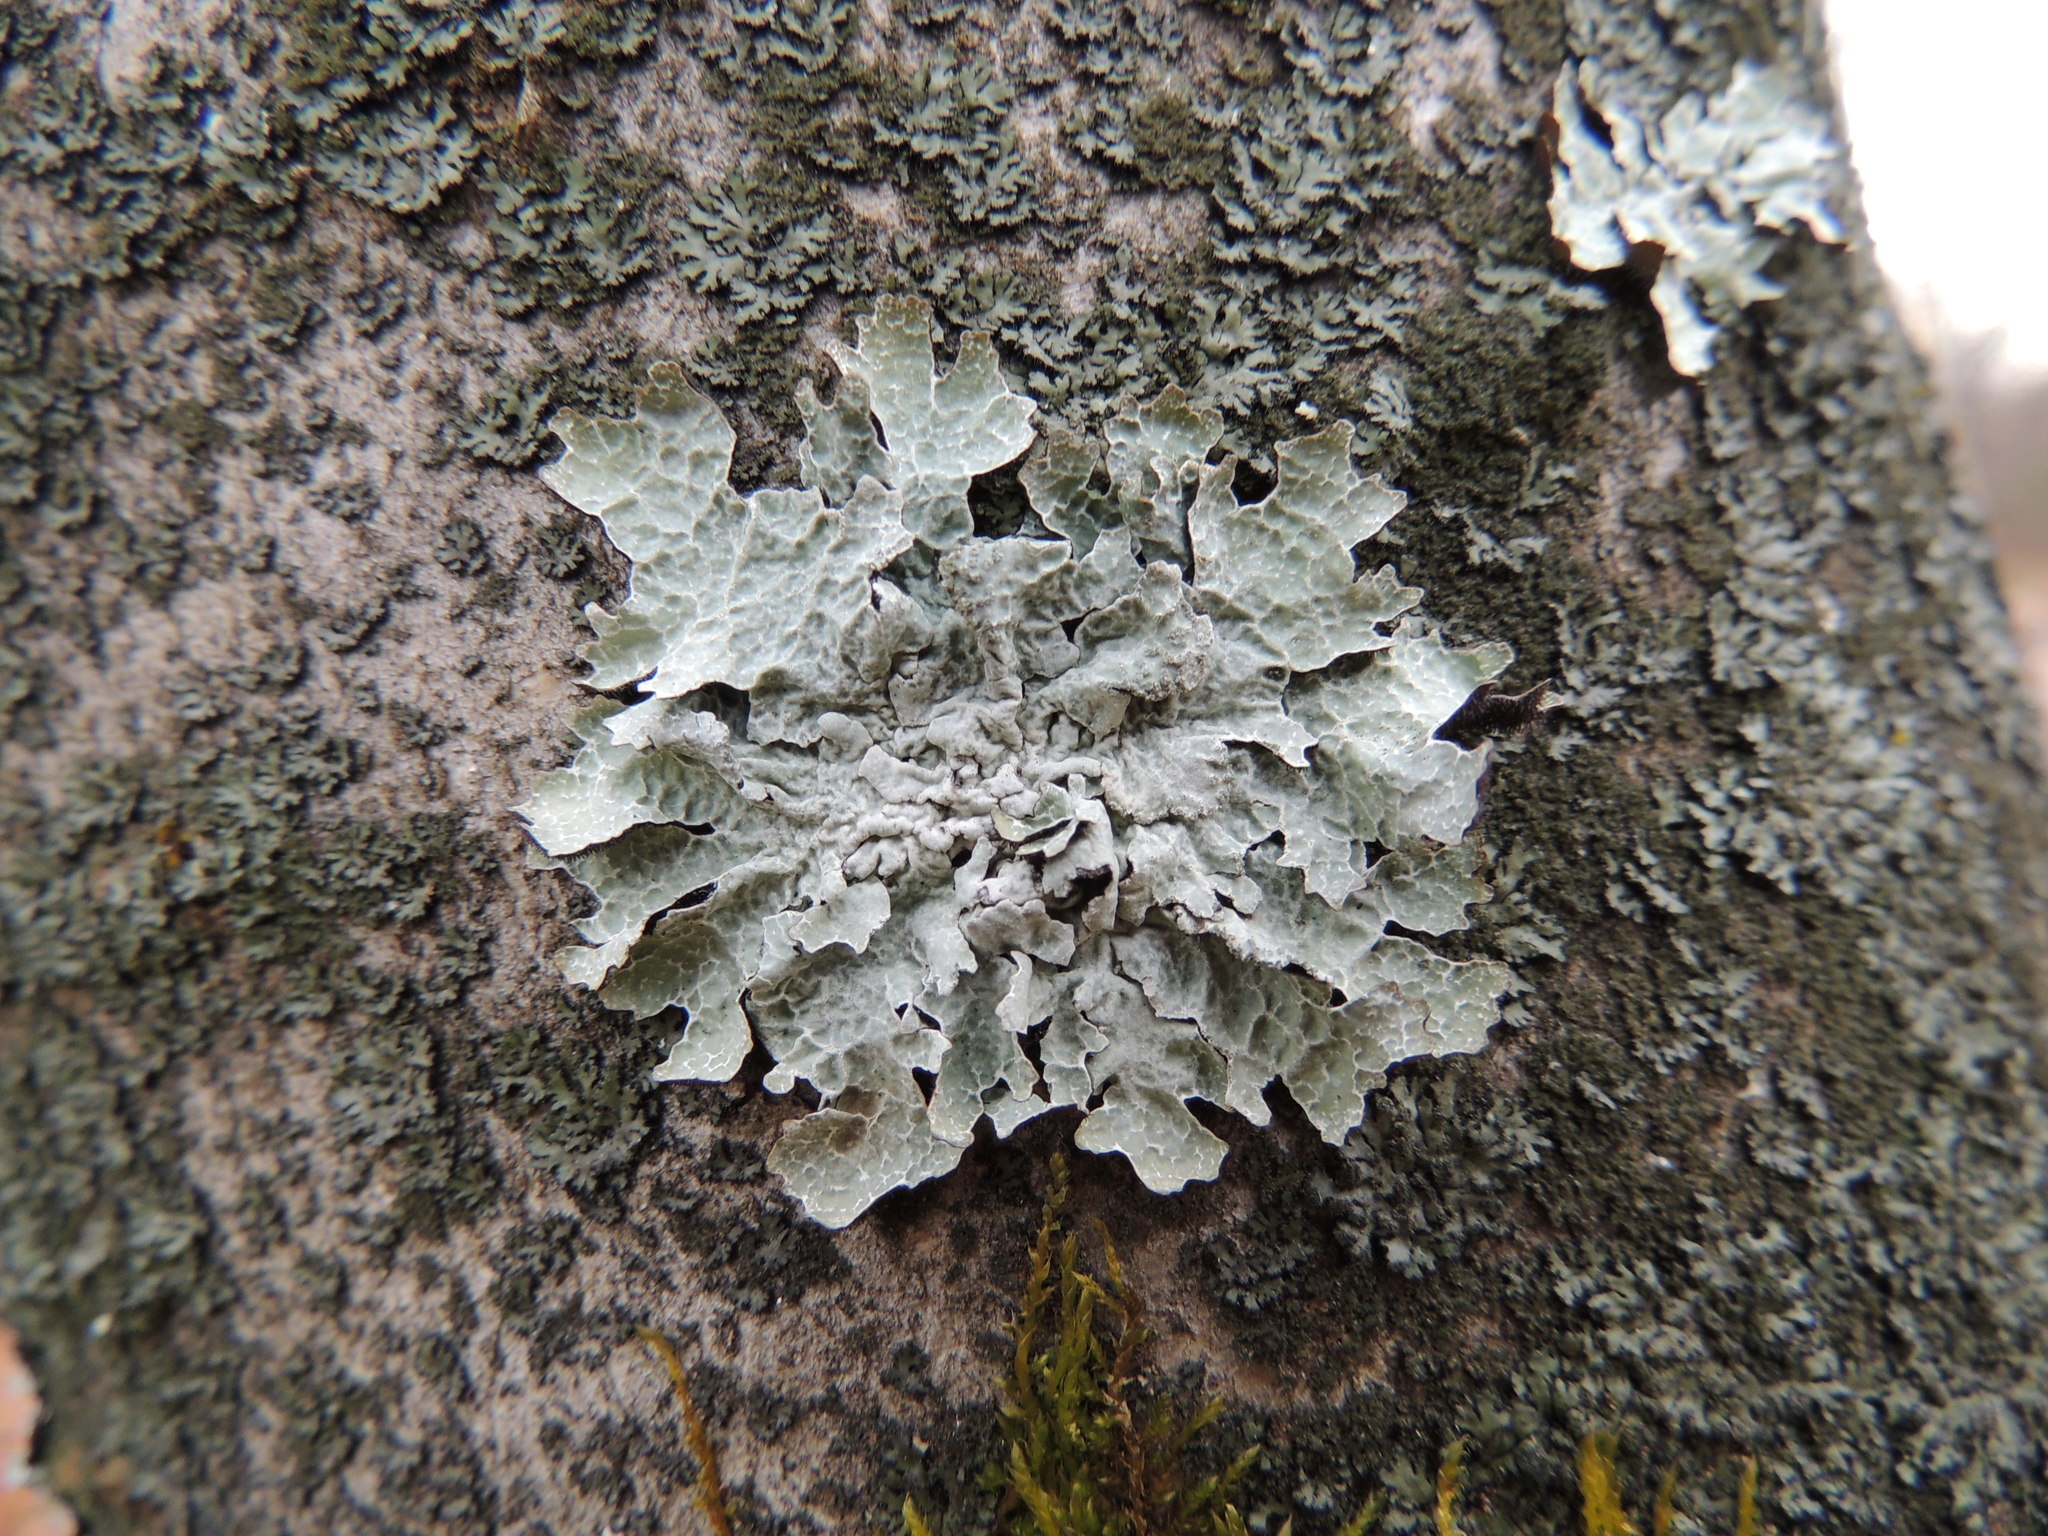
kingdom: Fungi
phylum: Ascomycota
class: Lecanoromycetes
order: Lecanorales
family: Parmeliaceae
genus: Parmelia
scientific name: Parmelia sulcata
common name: Netted shield lichen
